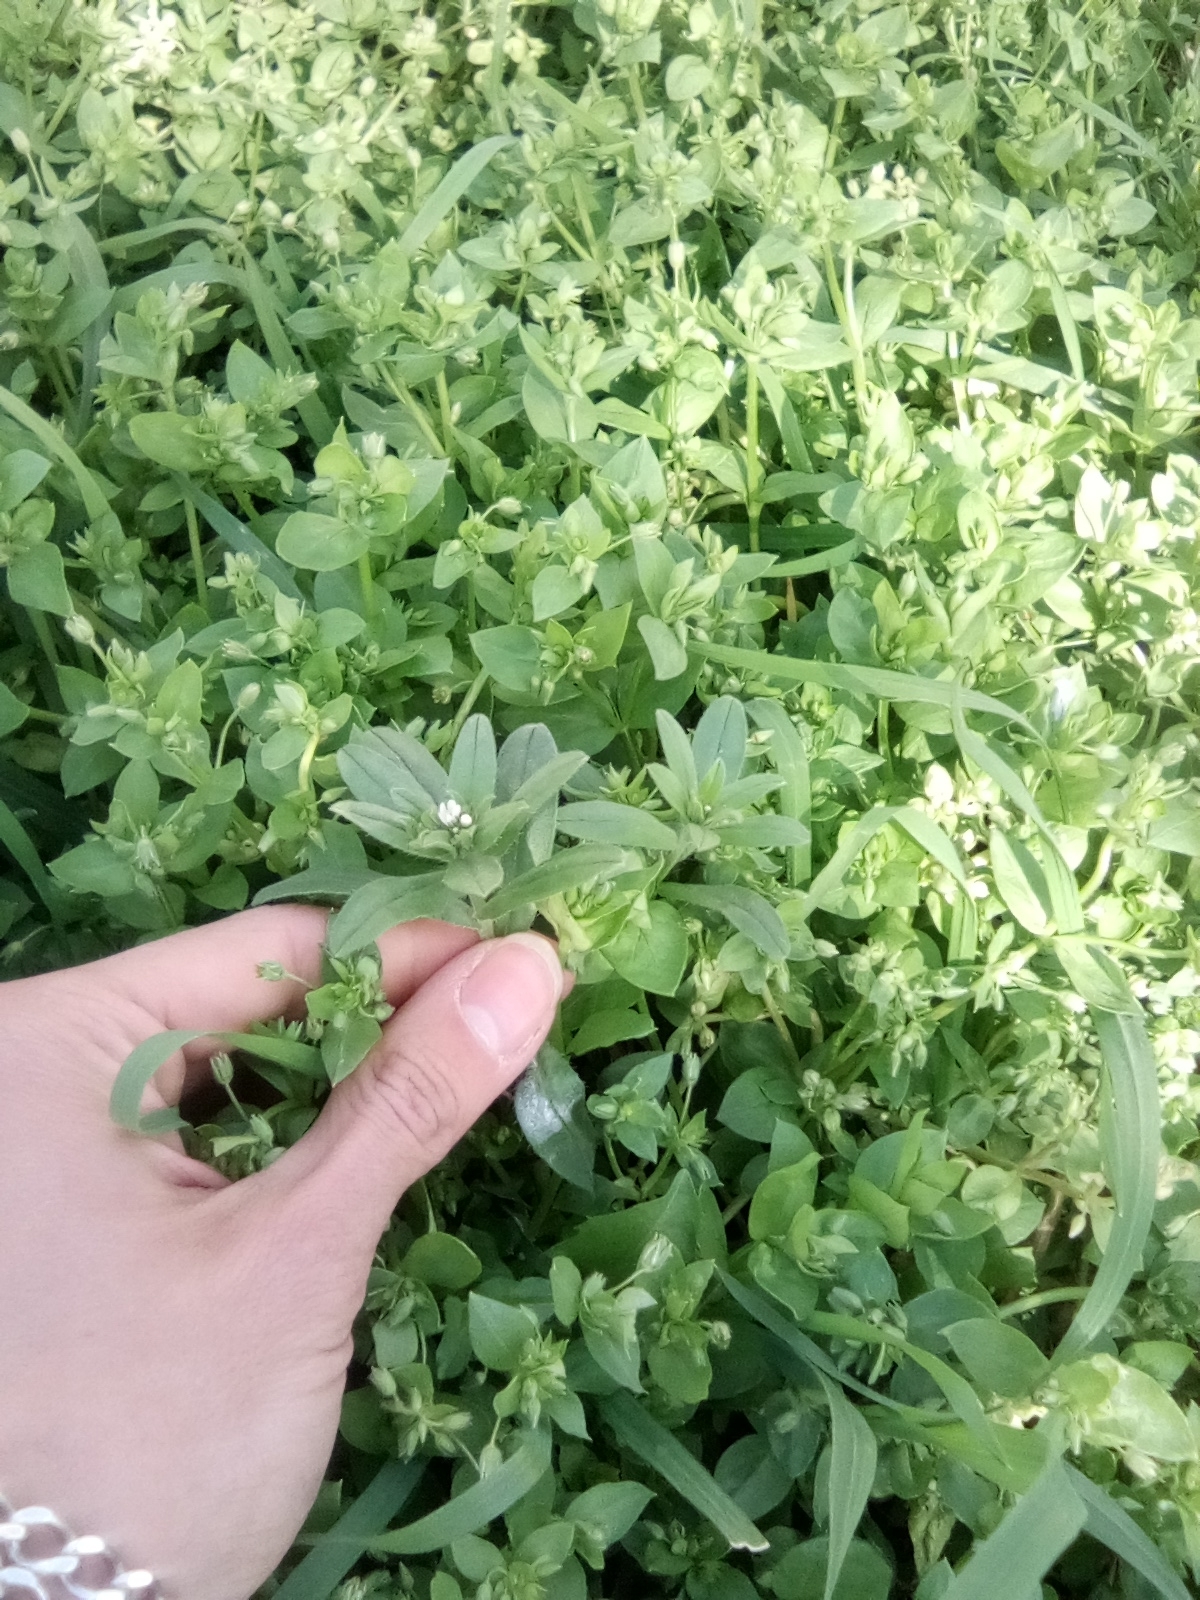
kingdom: Plantae
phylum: Tracheophyta
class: Magnoliopsida
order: Boraginales
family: Boraginaceae
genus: Buglossoides
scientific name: Buglossoides arvensis
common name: Corn gromwell
